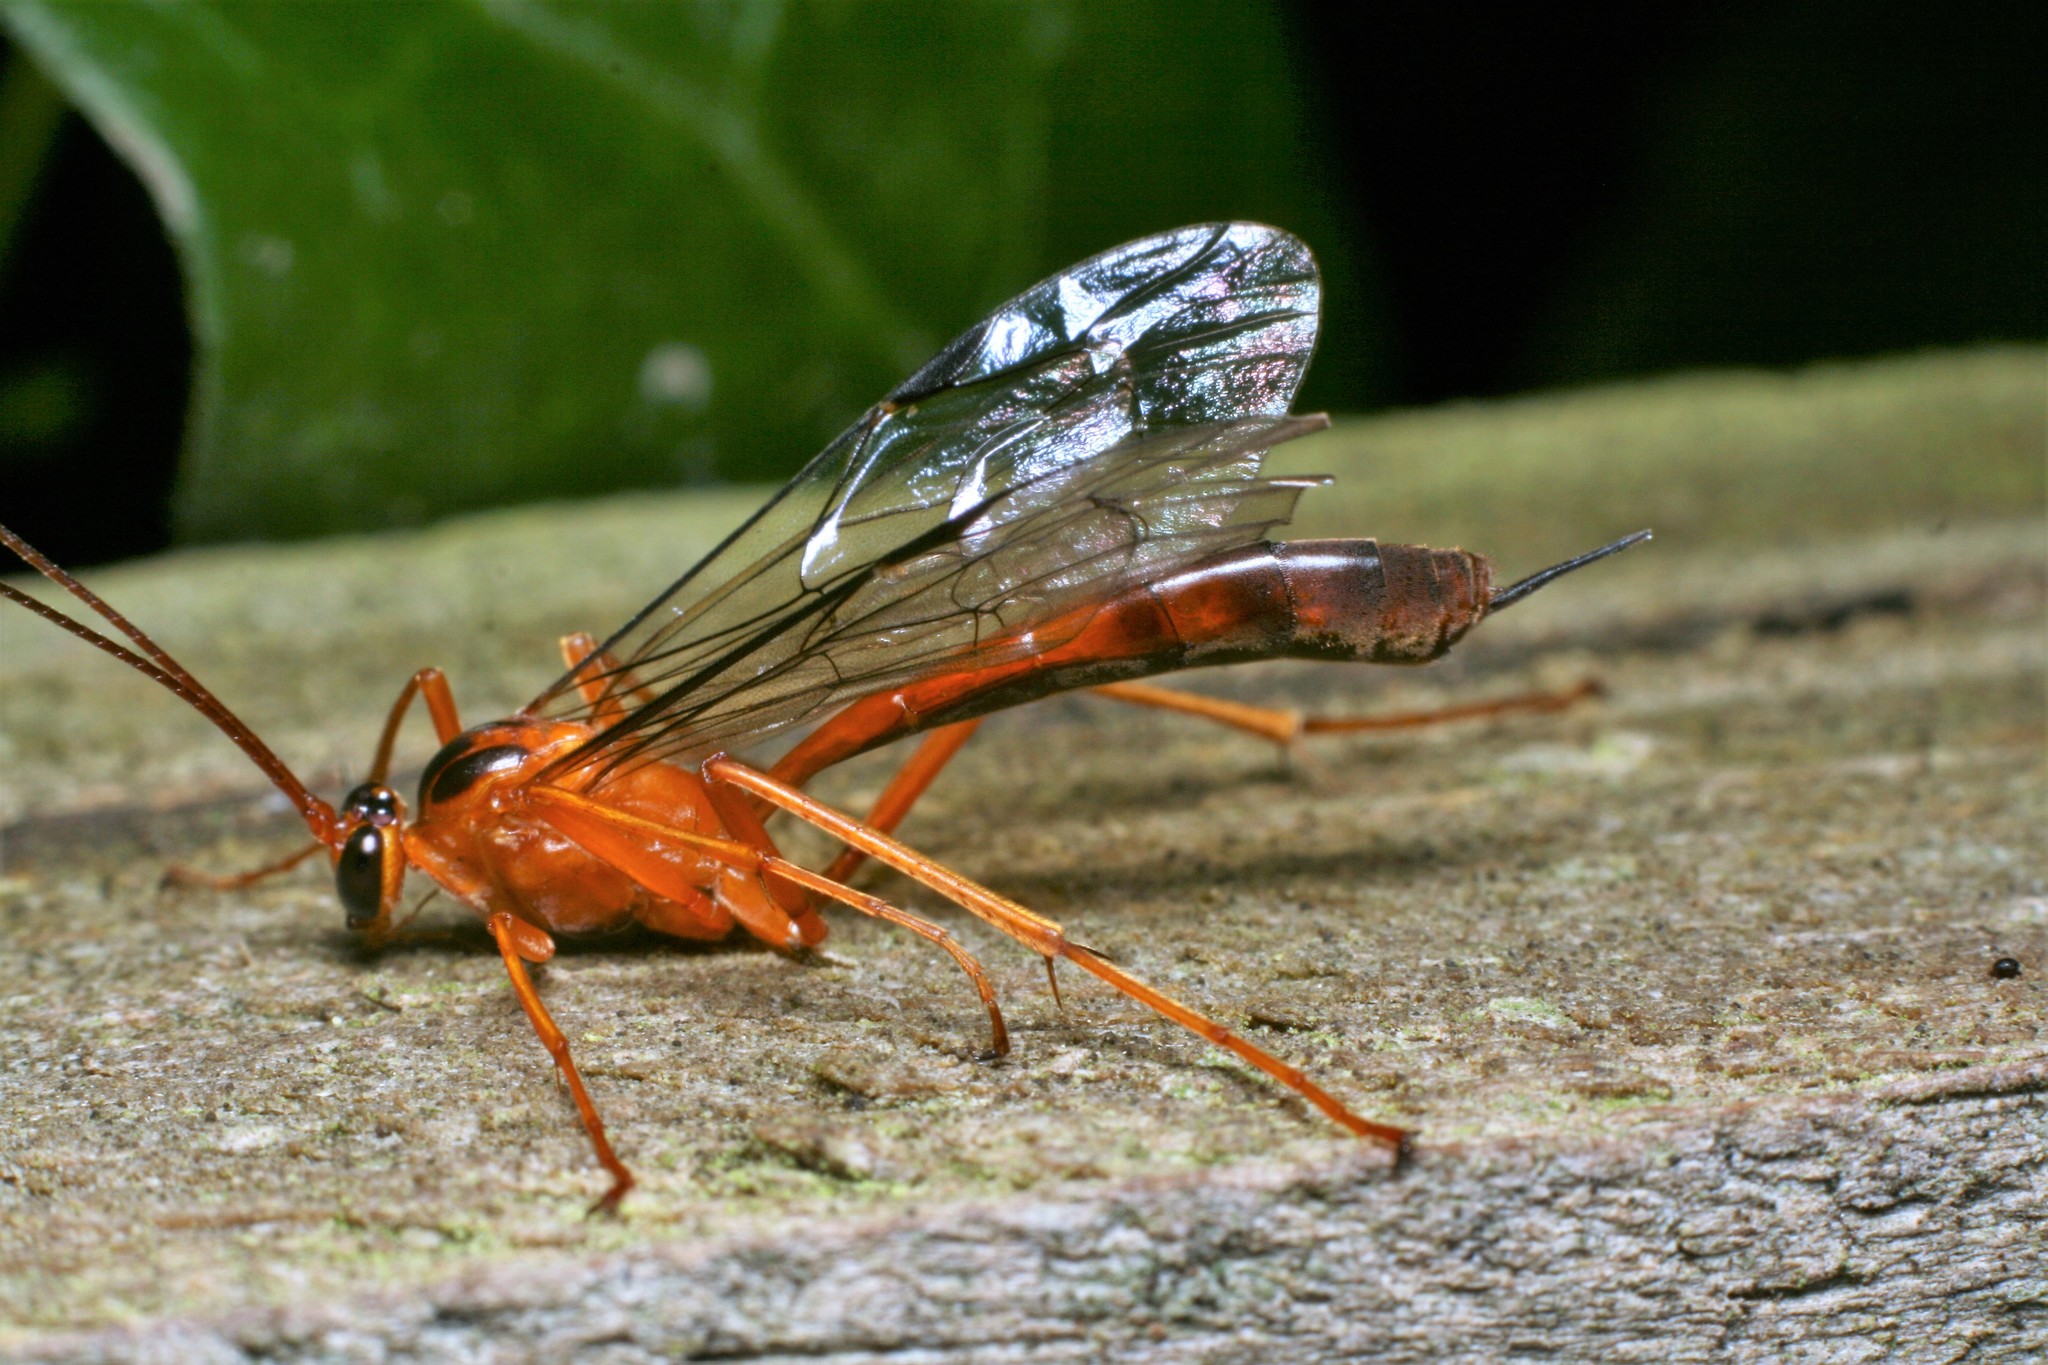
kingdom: Animalia
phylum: Arthropoda
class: Insecta
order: Hymenoptera
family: Ichneumonidae
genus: Netelia
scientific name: Netelia ephippiata
